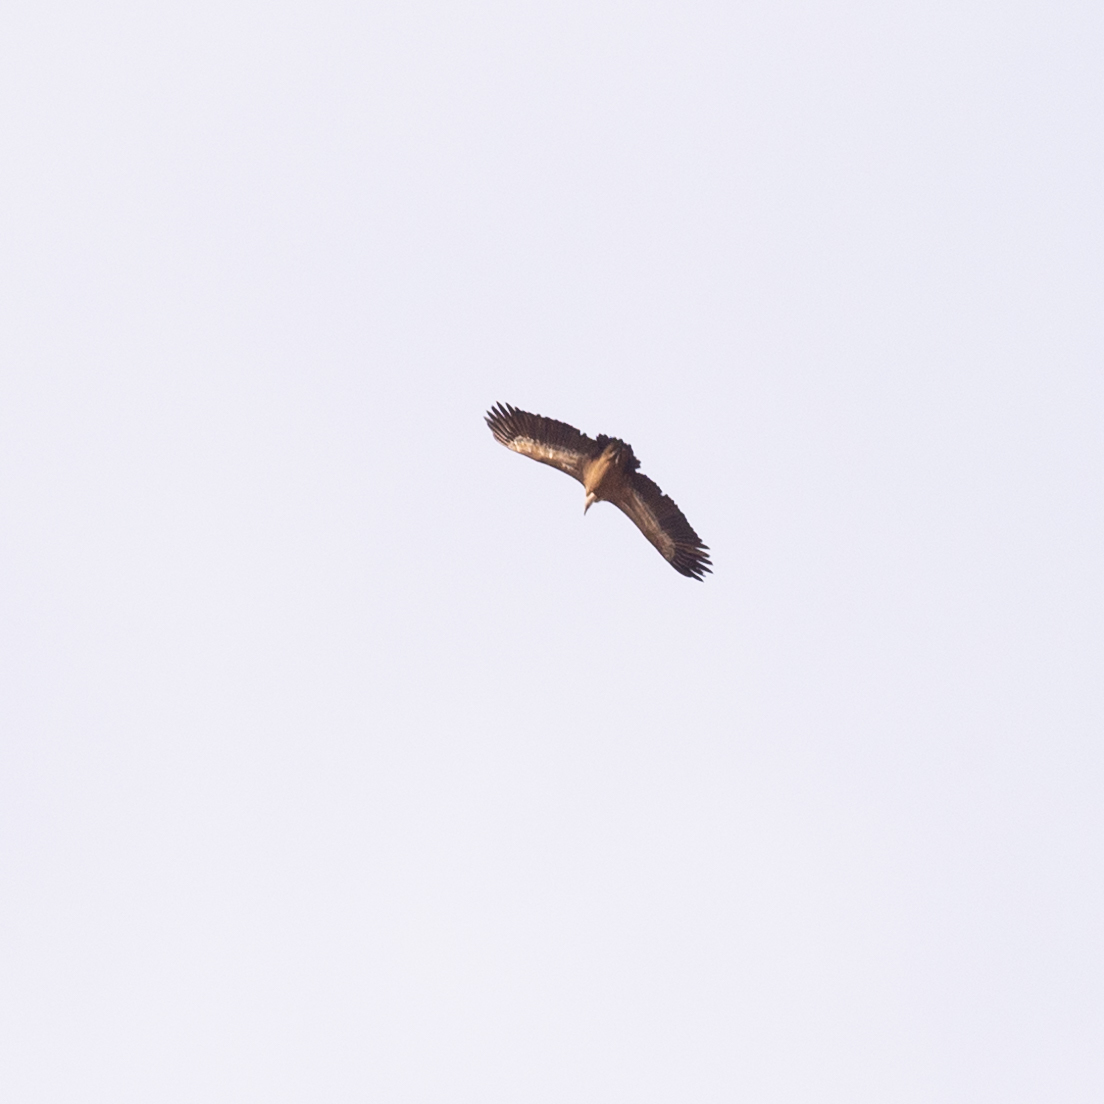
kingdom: Animalia
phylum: Chordata
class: Aves
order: Accipitriformes
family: Accipitridae
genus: Gyps
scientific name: Gyps fulvus
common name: Griffon vulture
